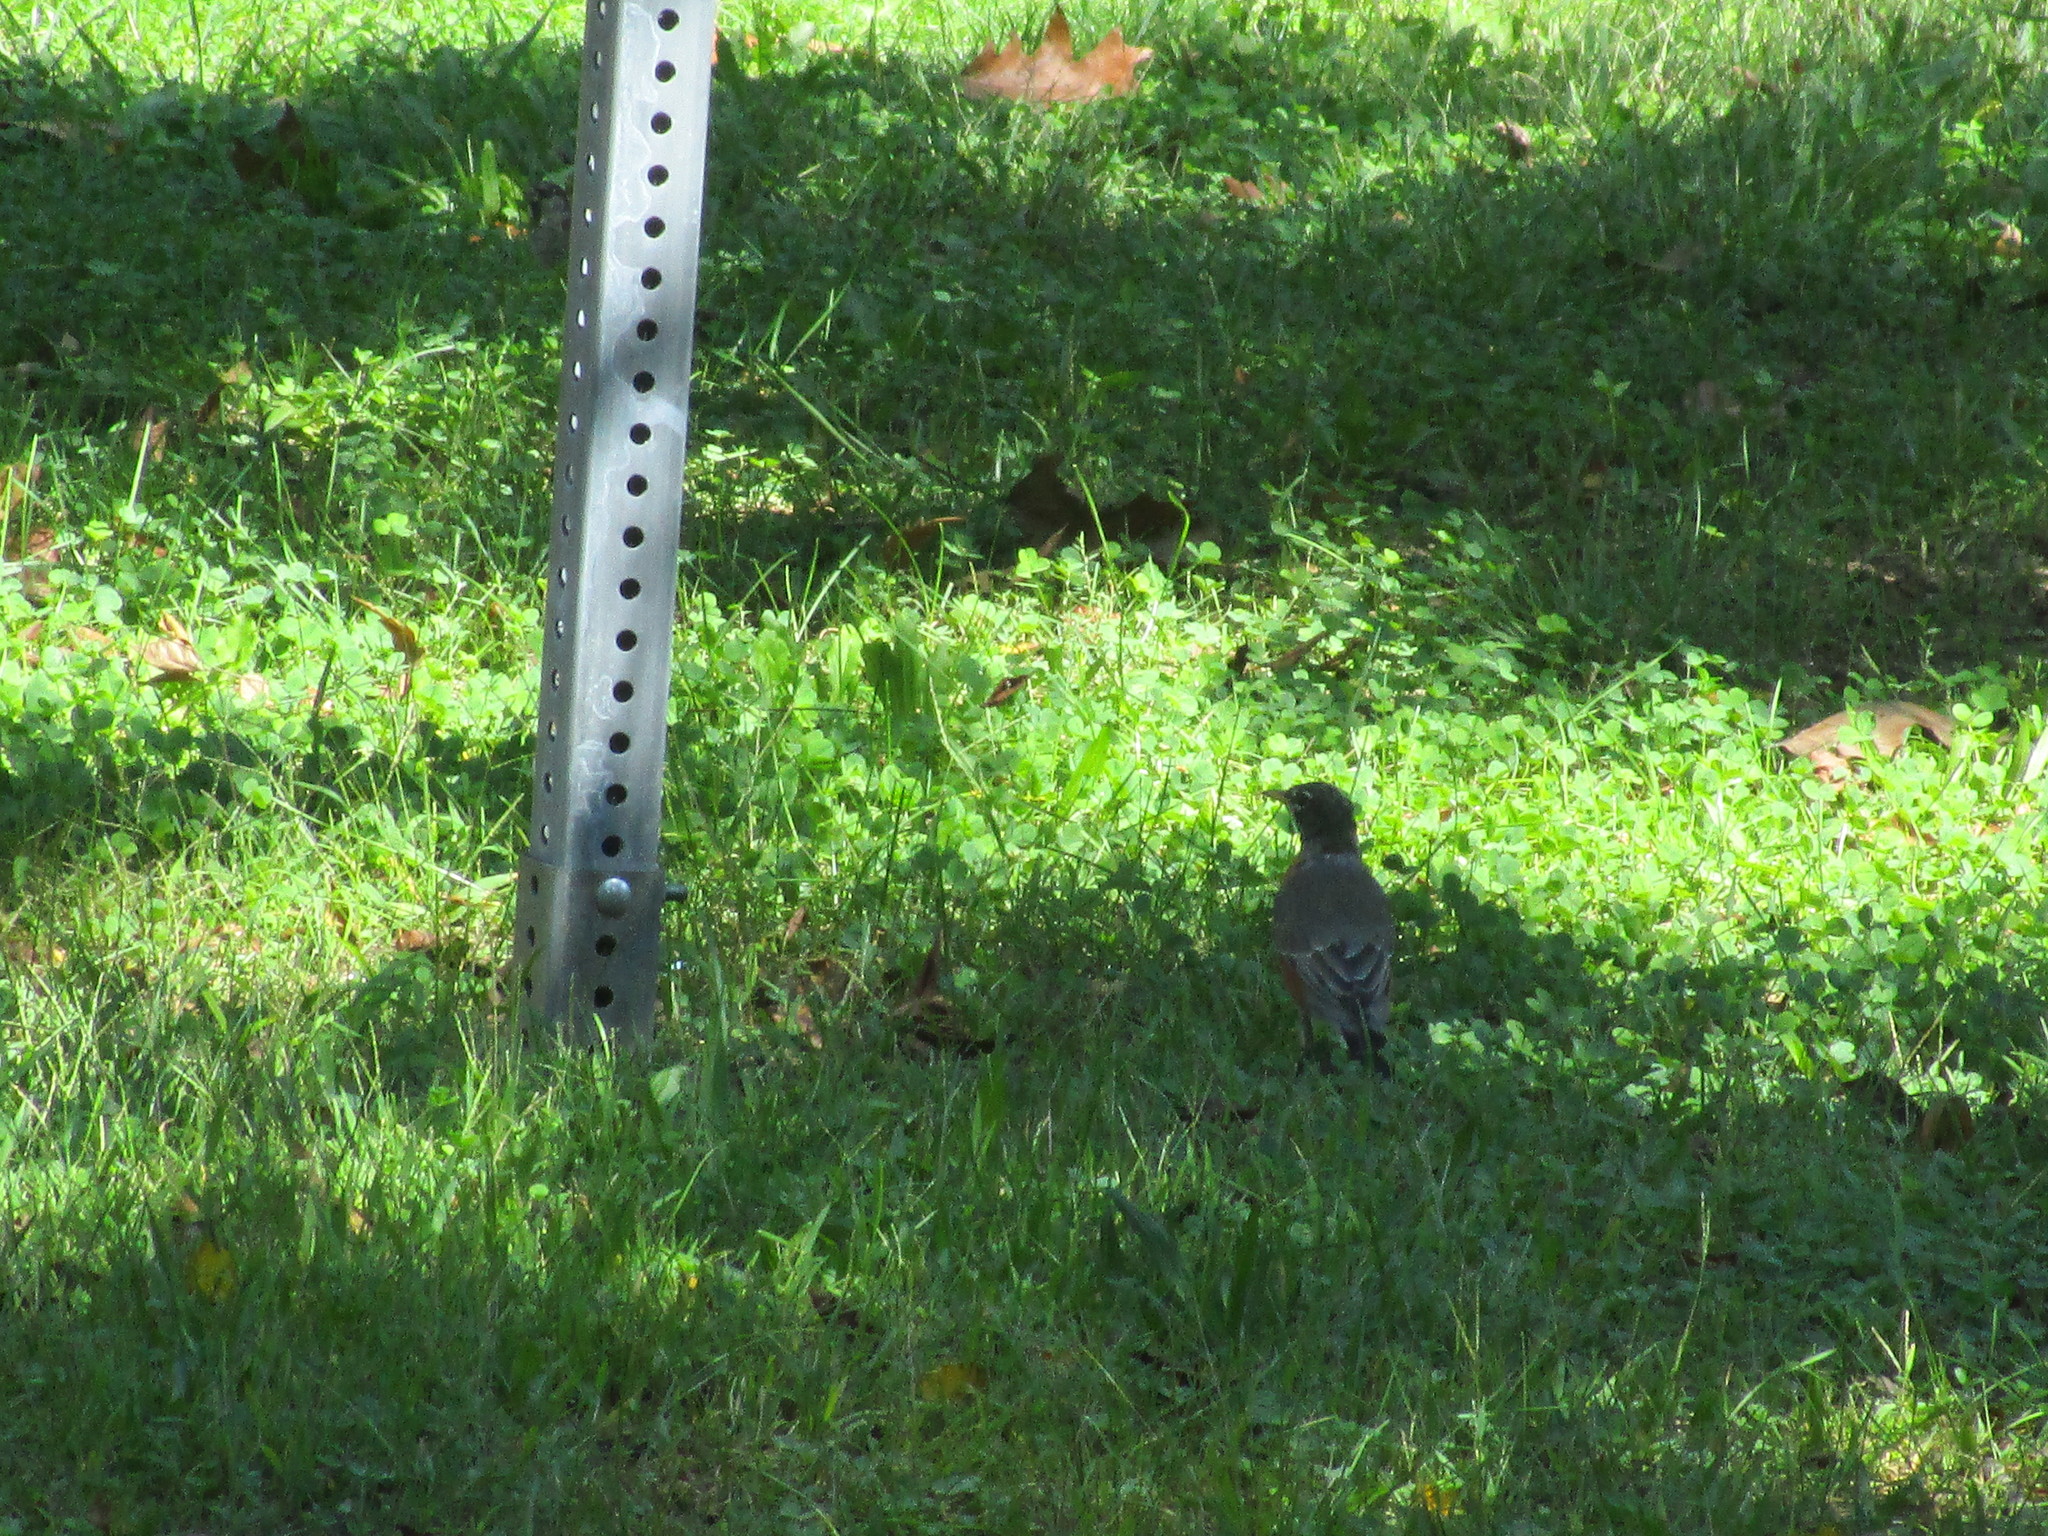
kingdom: Animalia
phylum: Chordata
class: Aves
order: Passeriformes
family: Turdidae
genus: Turdus
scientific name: Turdus migratorius
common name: American robin
